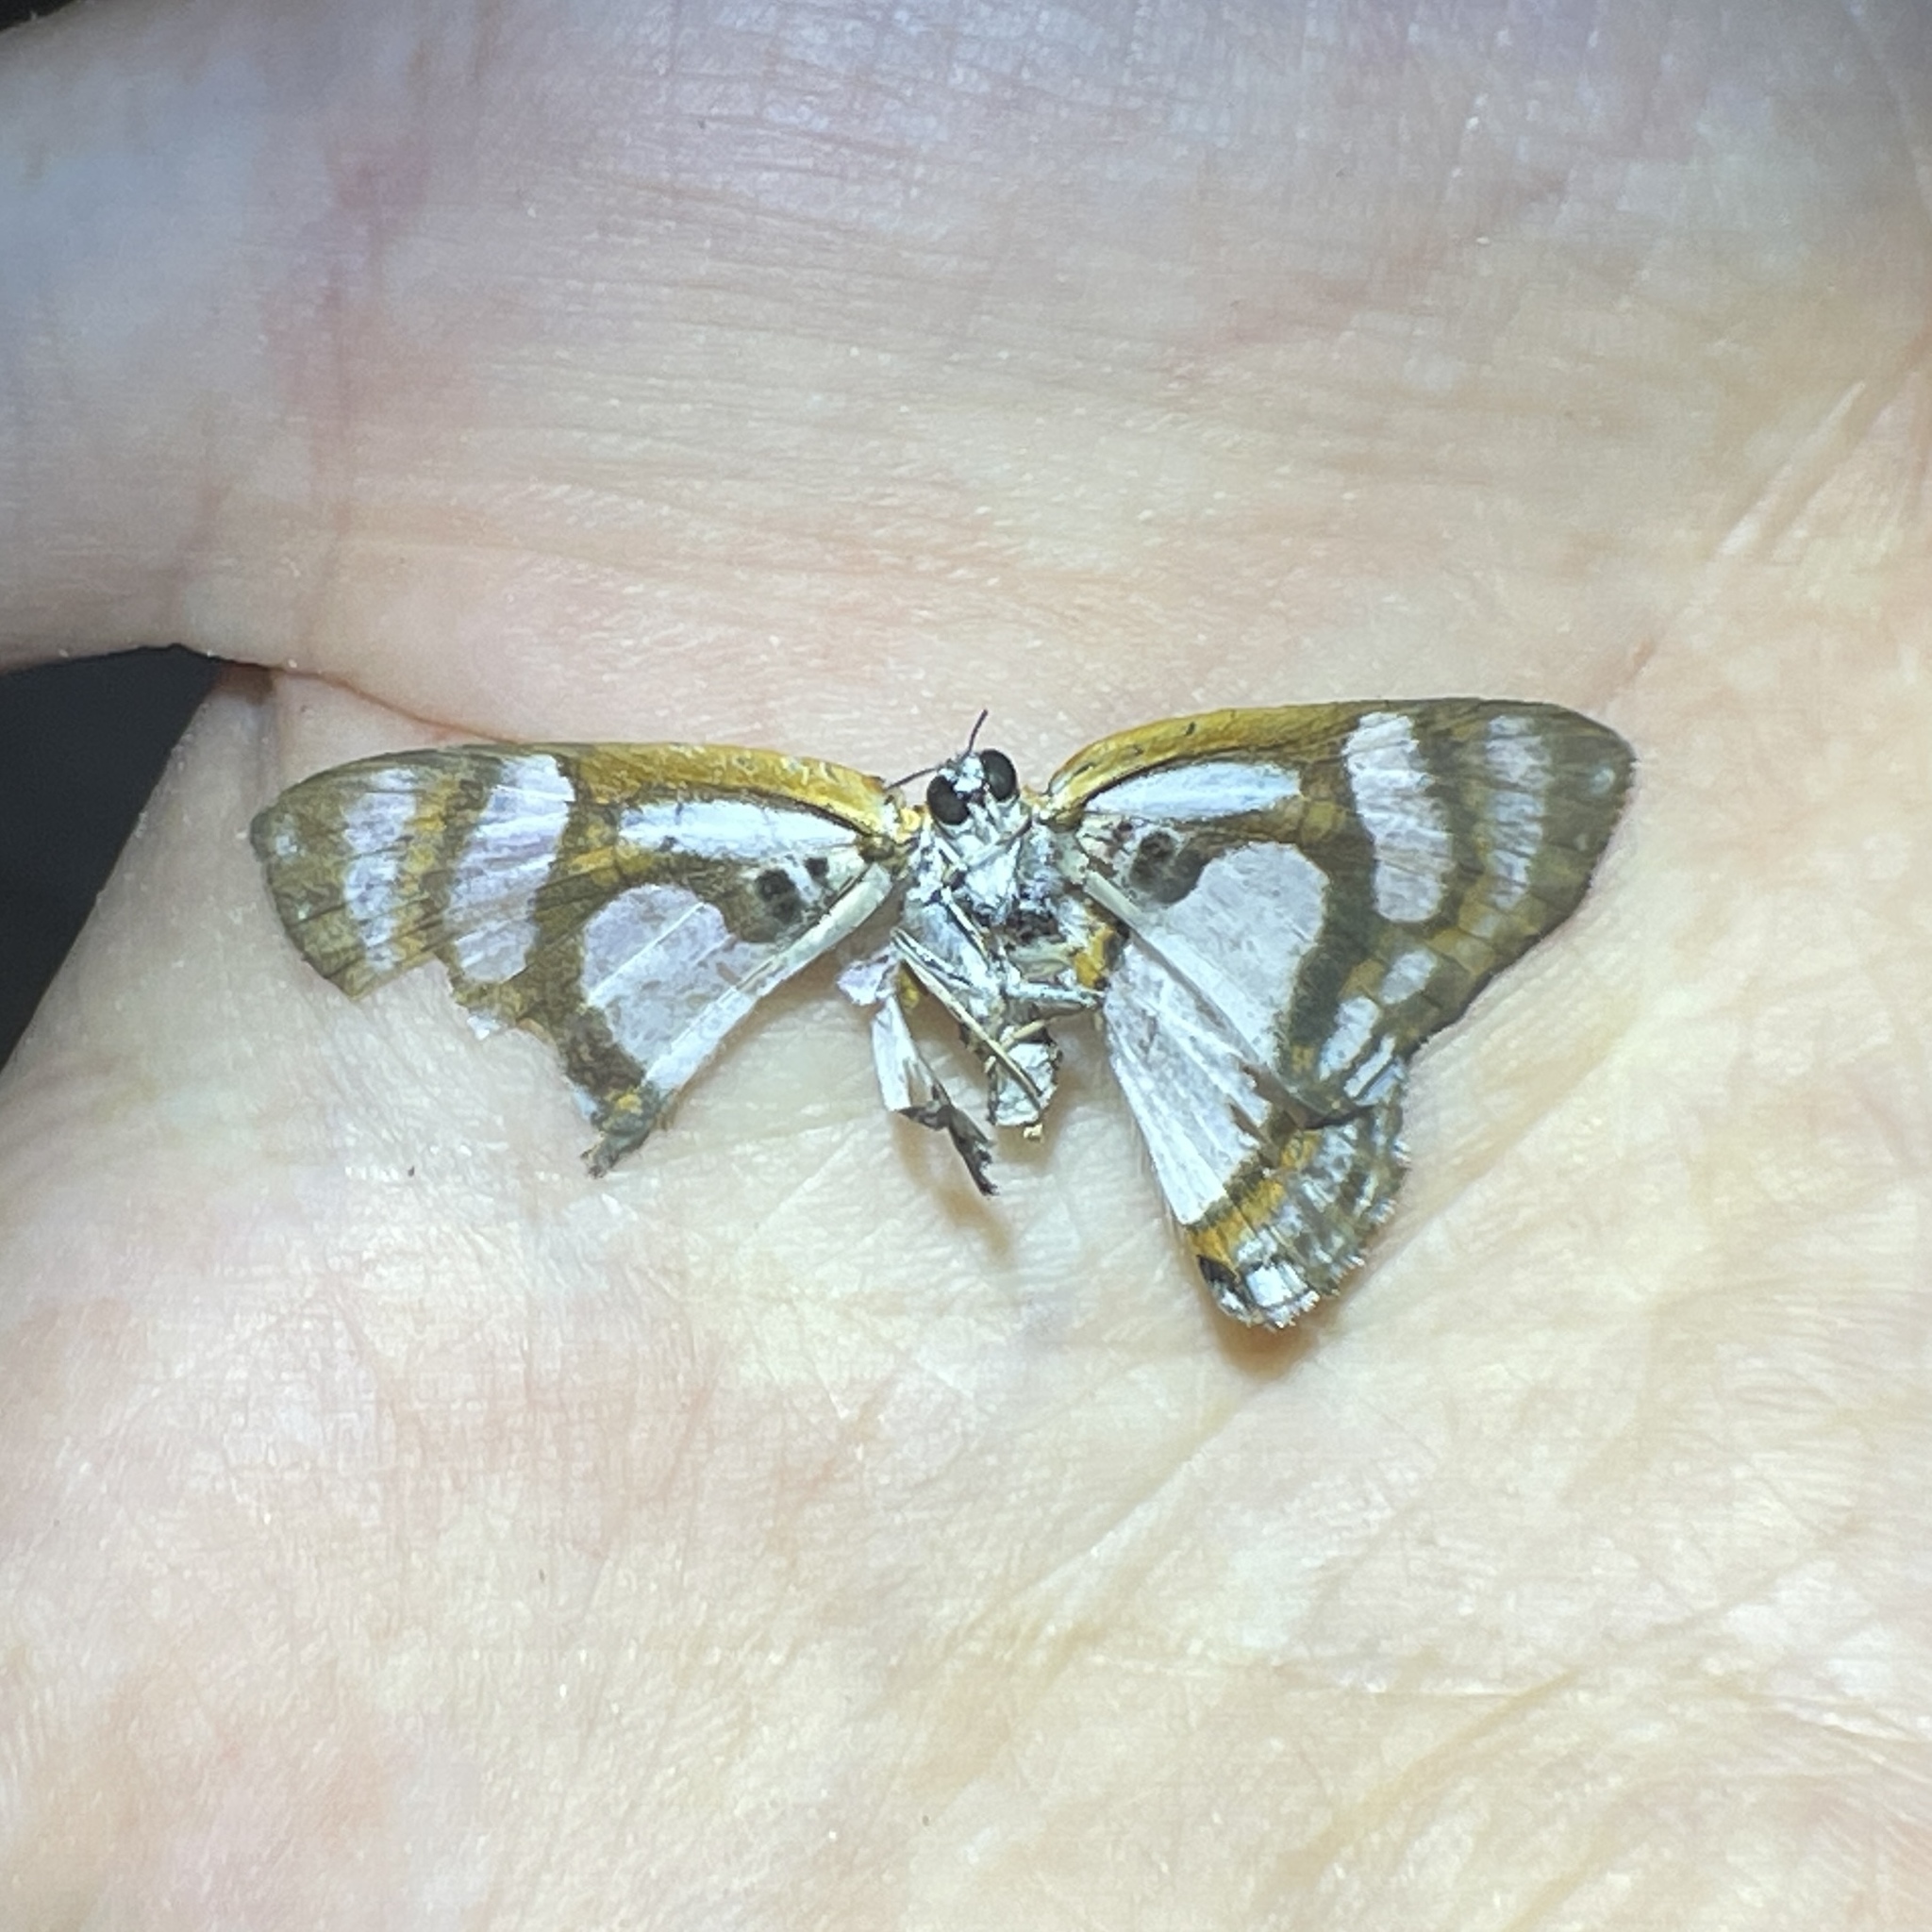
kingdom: Animalia
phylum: Arthropoda
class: Insecta
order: Lepidoptera
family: Riodinidae
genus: Thisbe
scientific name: Thisbe irenea
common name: Irenia metalmark
